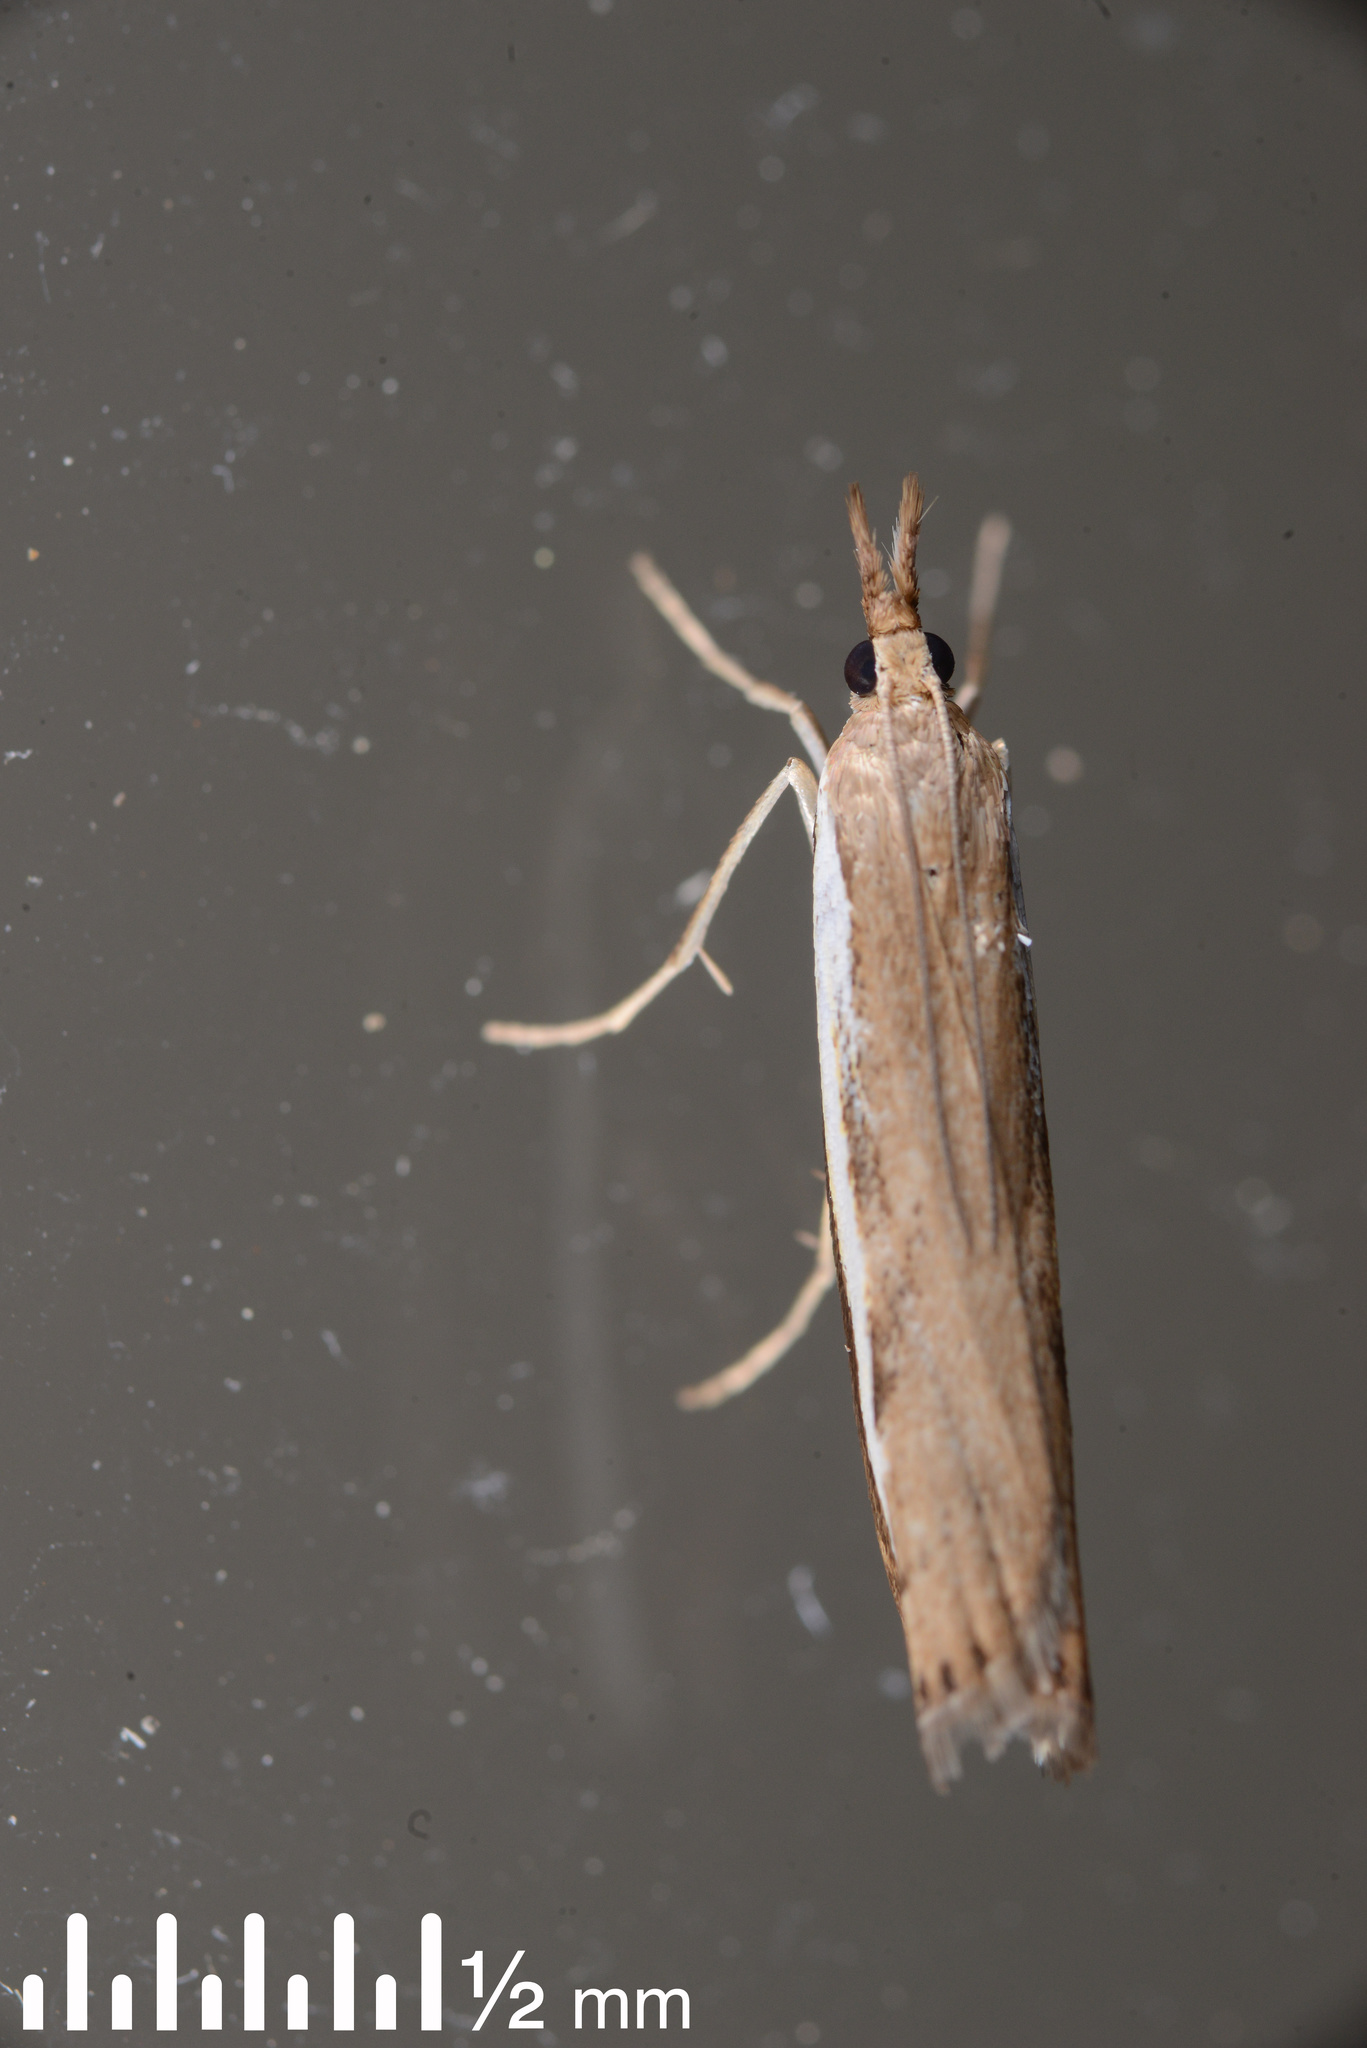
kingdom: Animalia
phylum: Arthropoda
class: Insecta
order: Lepidoptera
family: Crambidae
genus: Orocrambus
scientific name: Orocrambus flexuosellus
